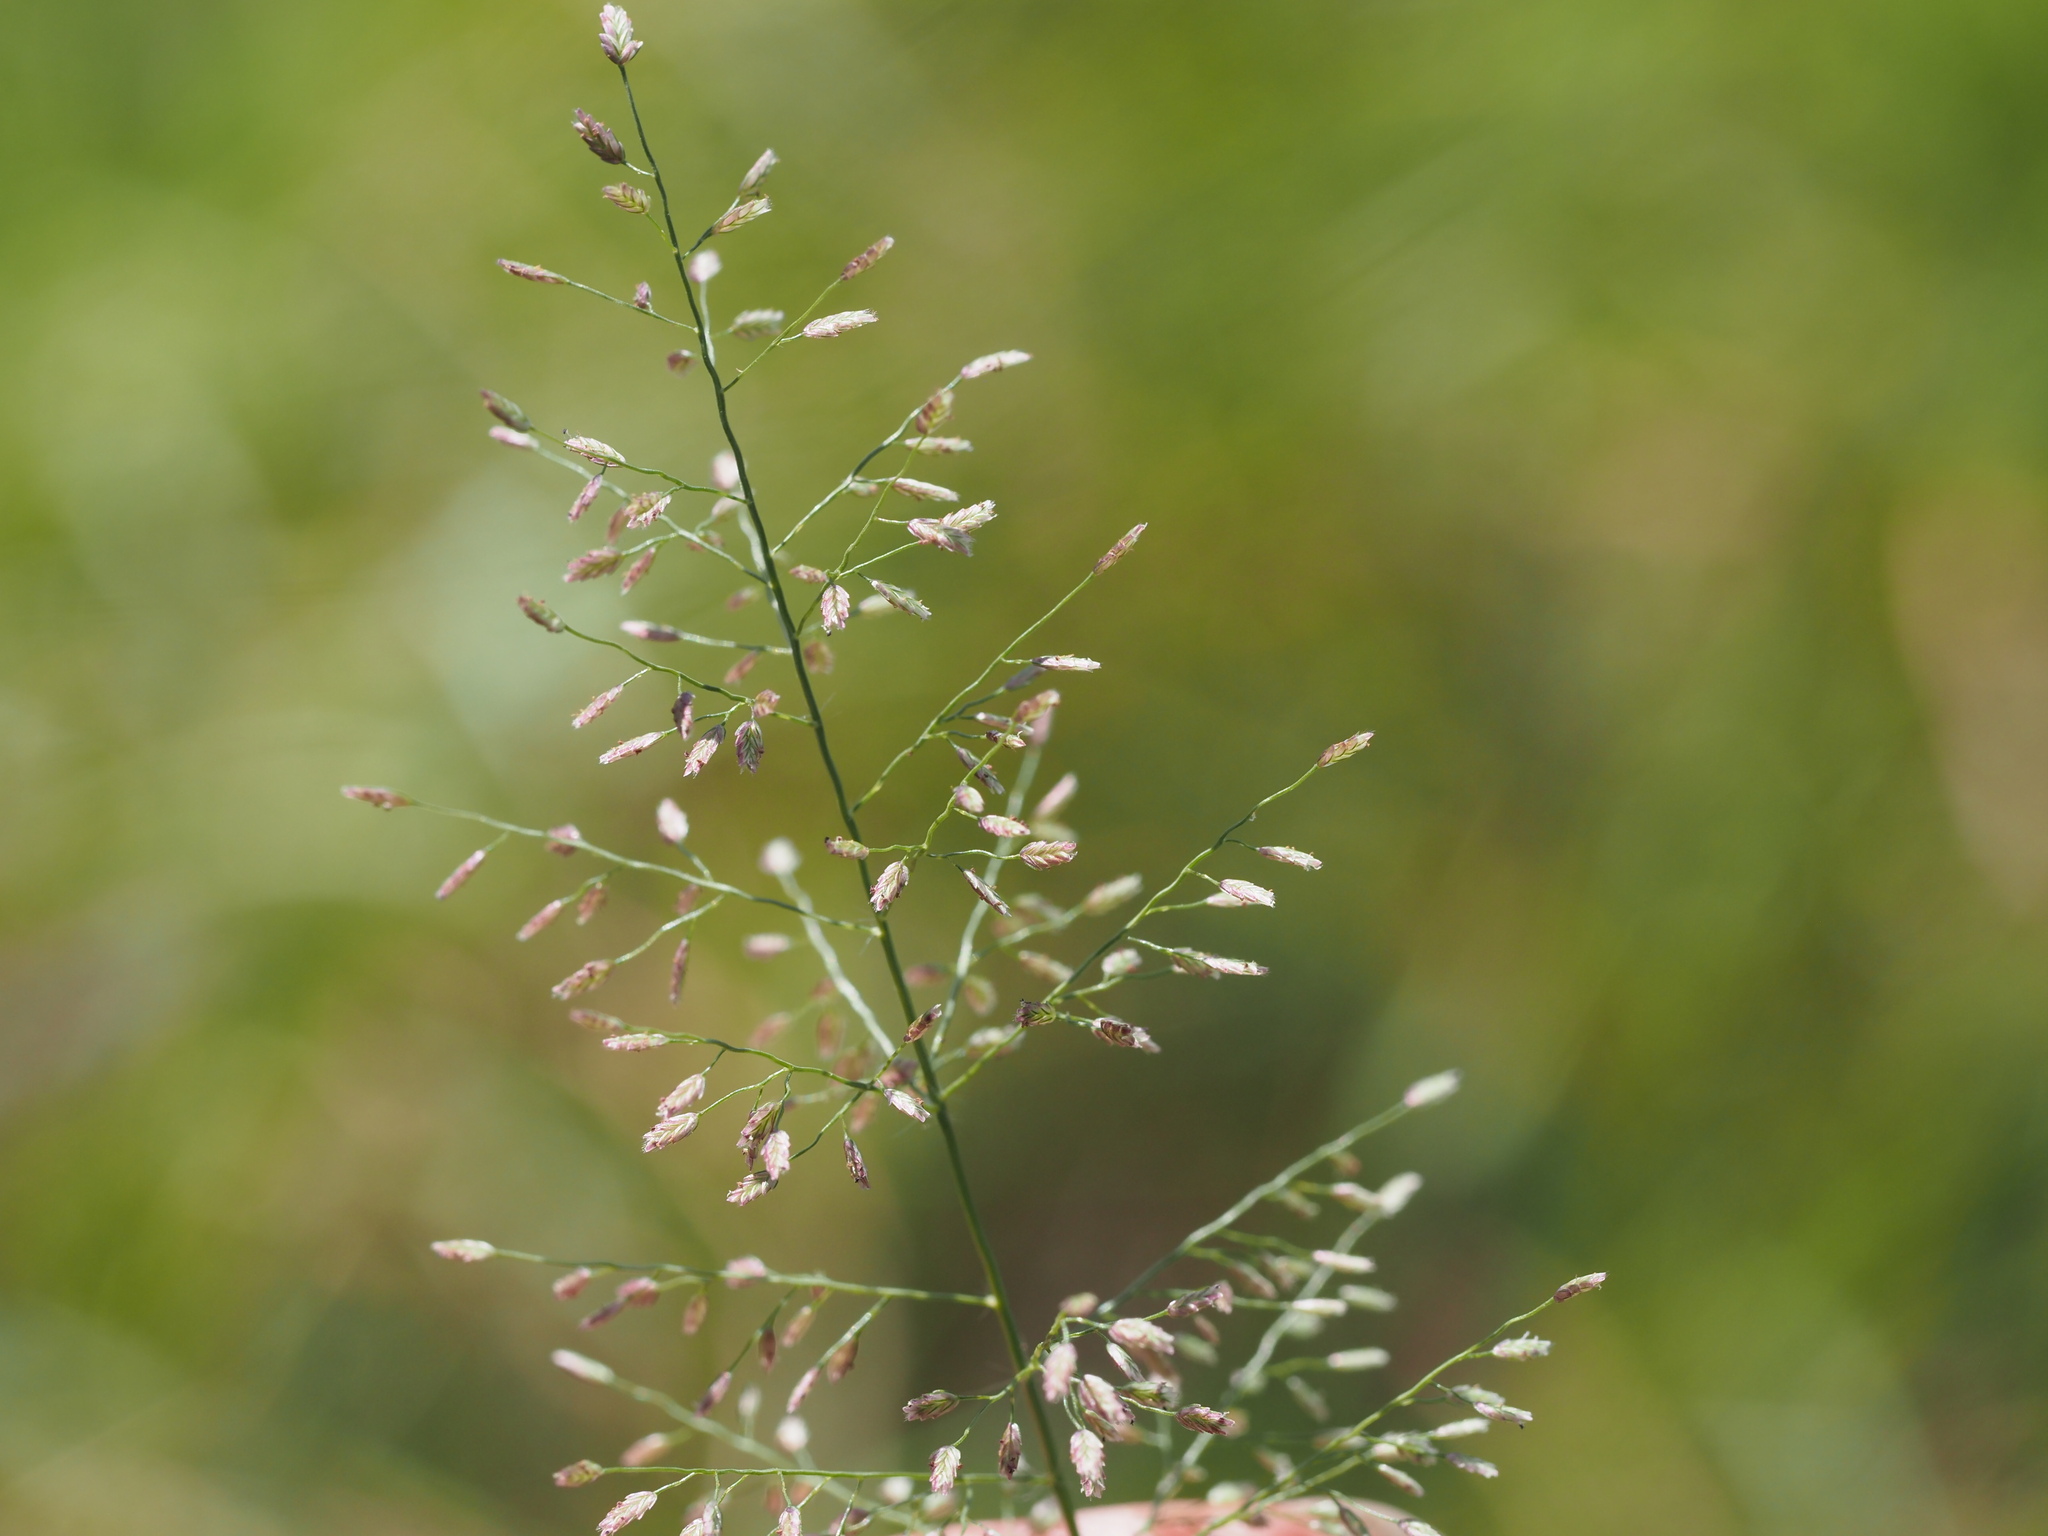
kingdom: Plantae
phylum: Tracheophyta
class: Liliopsida
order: Poales
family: Poaceae
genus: Eragrostis
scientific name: Eragrostis tenella
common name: Japanese lovegrass
